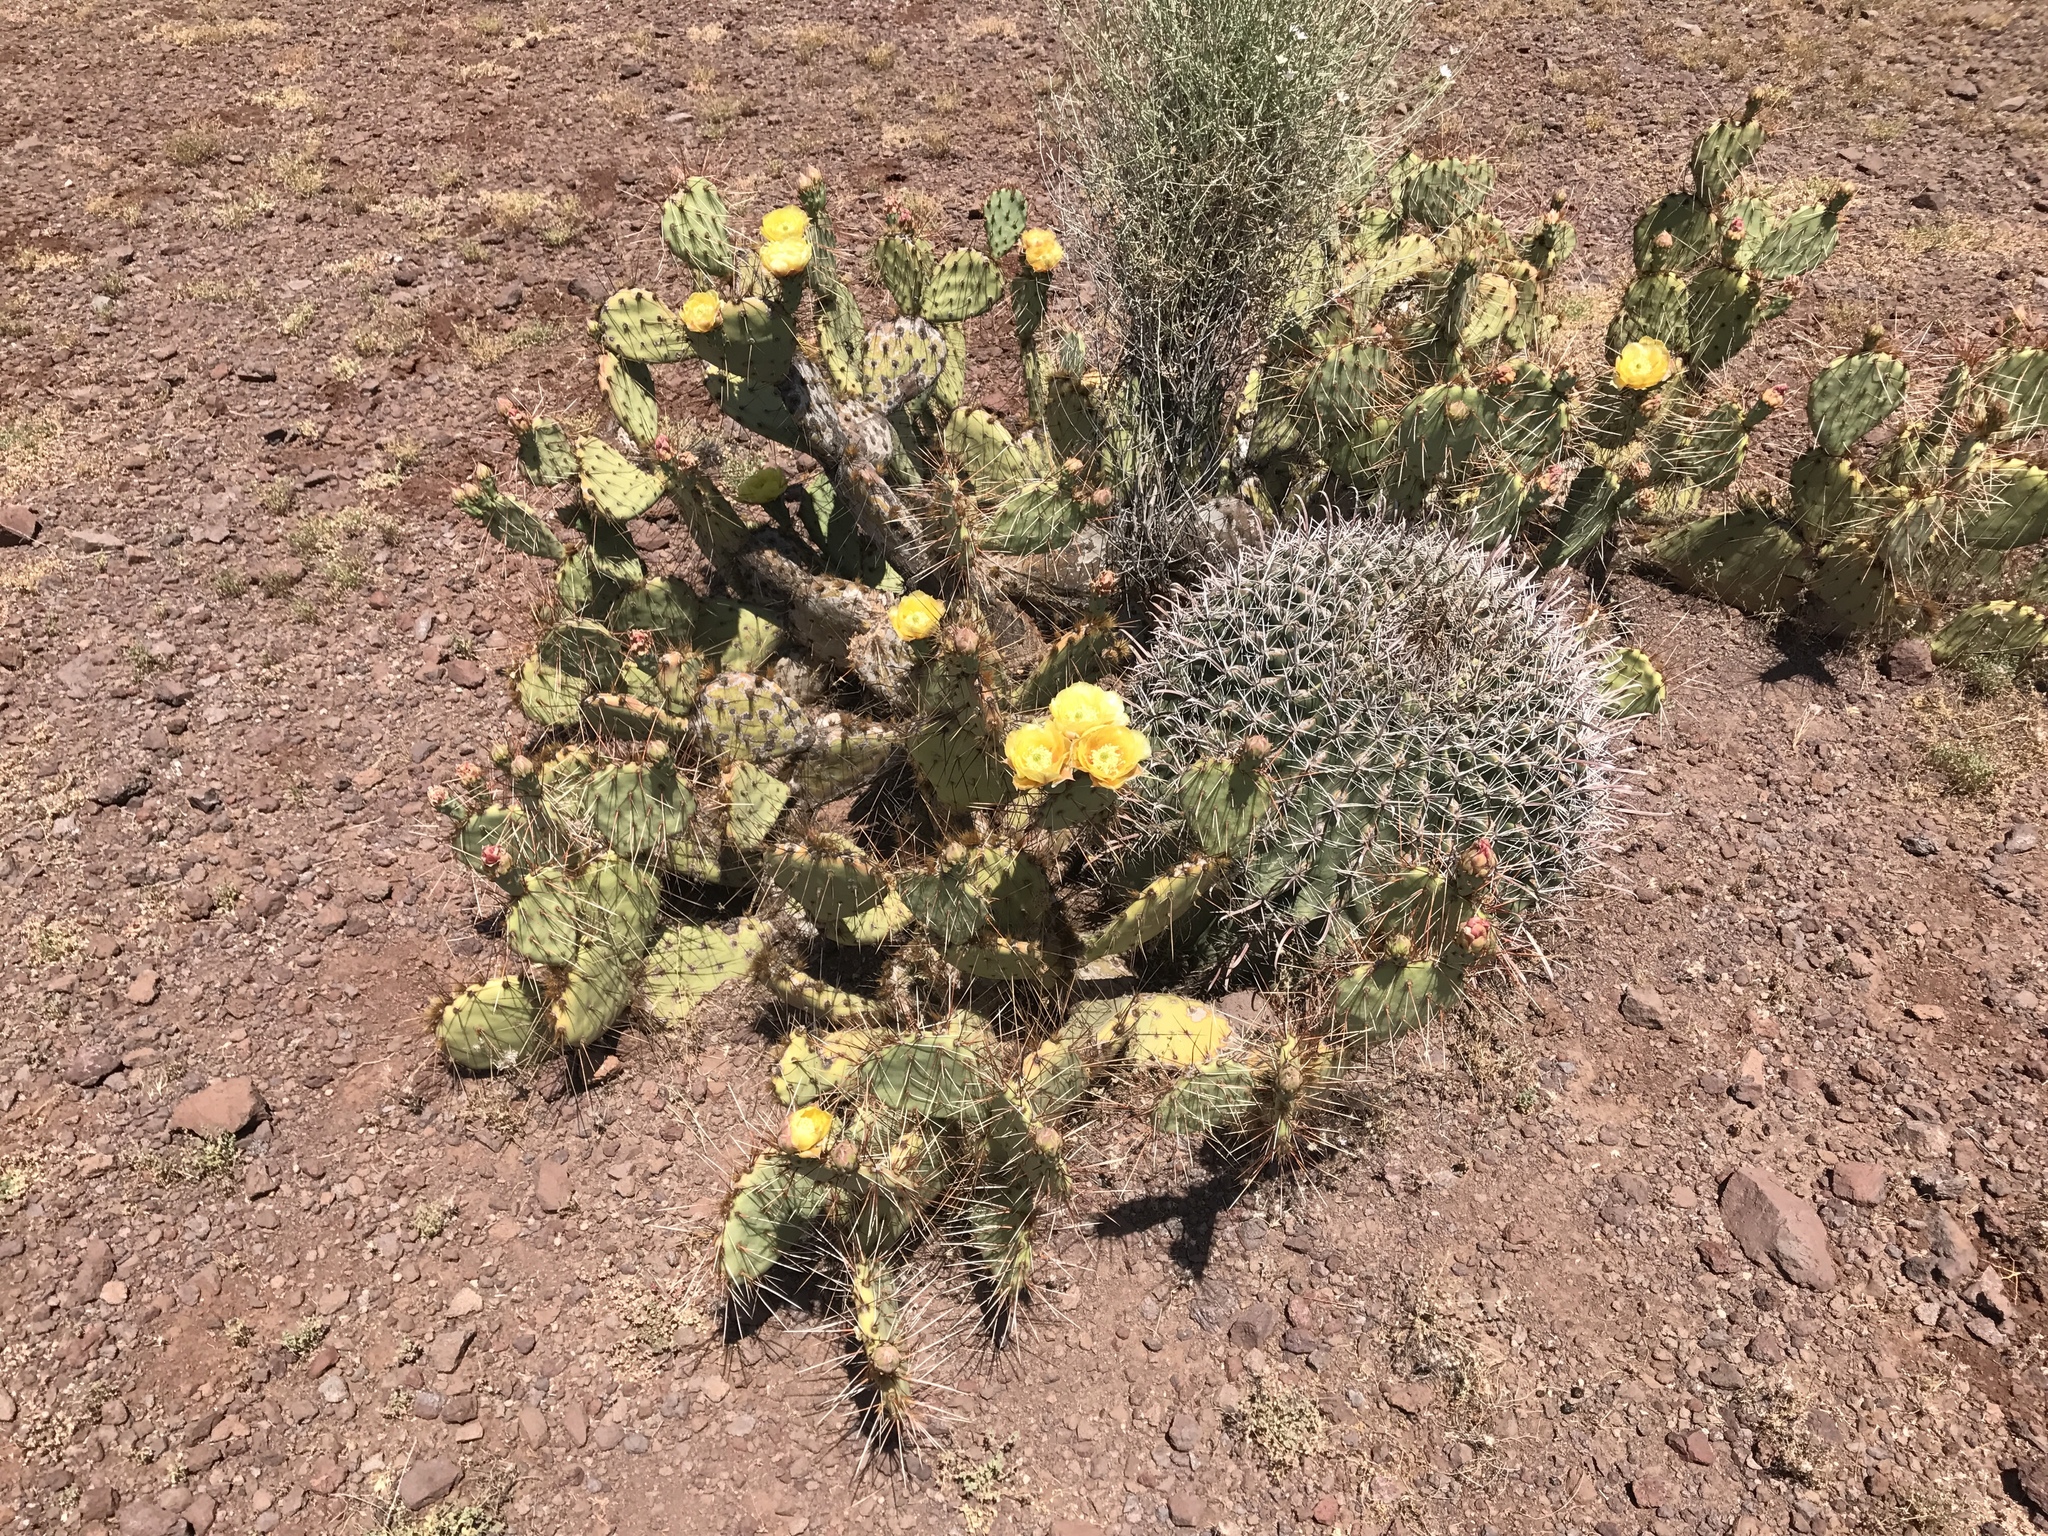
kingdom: Plantae
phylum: Tracheophyta
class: Magnoliopsida
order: Caryophyllales
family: Cactaceae
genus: Opuntia
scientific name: Opuntia engelmannii
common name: Cactus-apple
